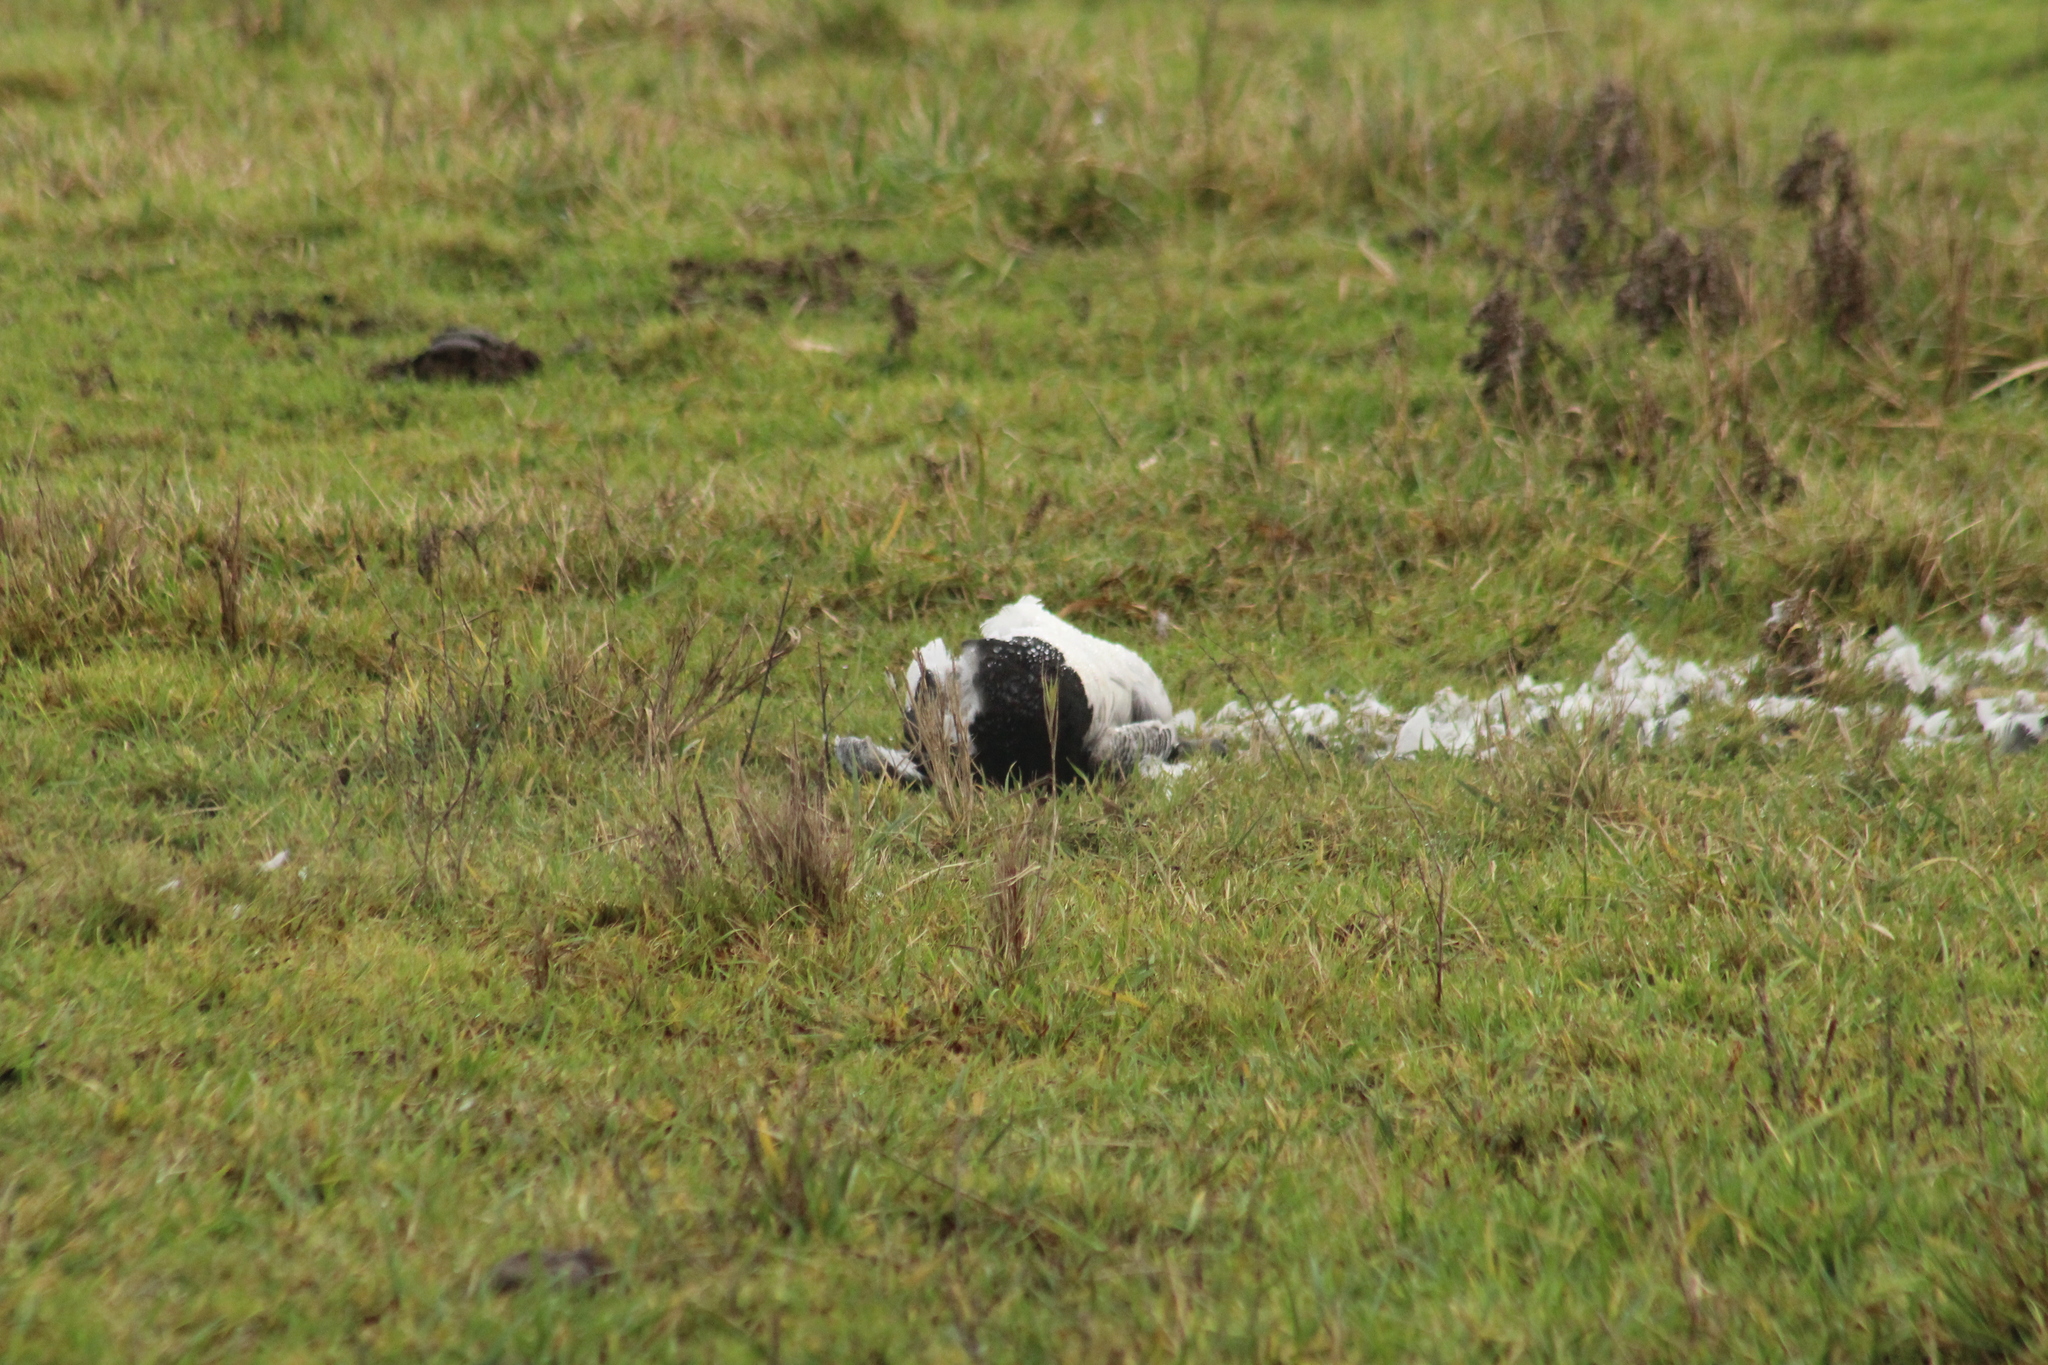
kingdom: Animalia
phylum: Chordata
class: Aves
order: Anseriformes
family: Anatidae
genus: Branta
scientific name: Branta leucopsis
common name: Barnacle goose
